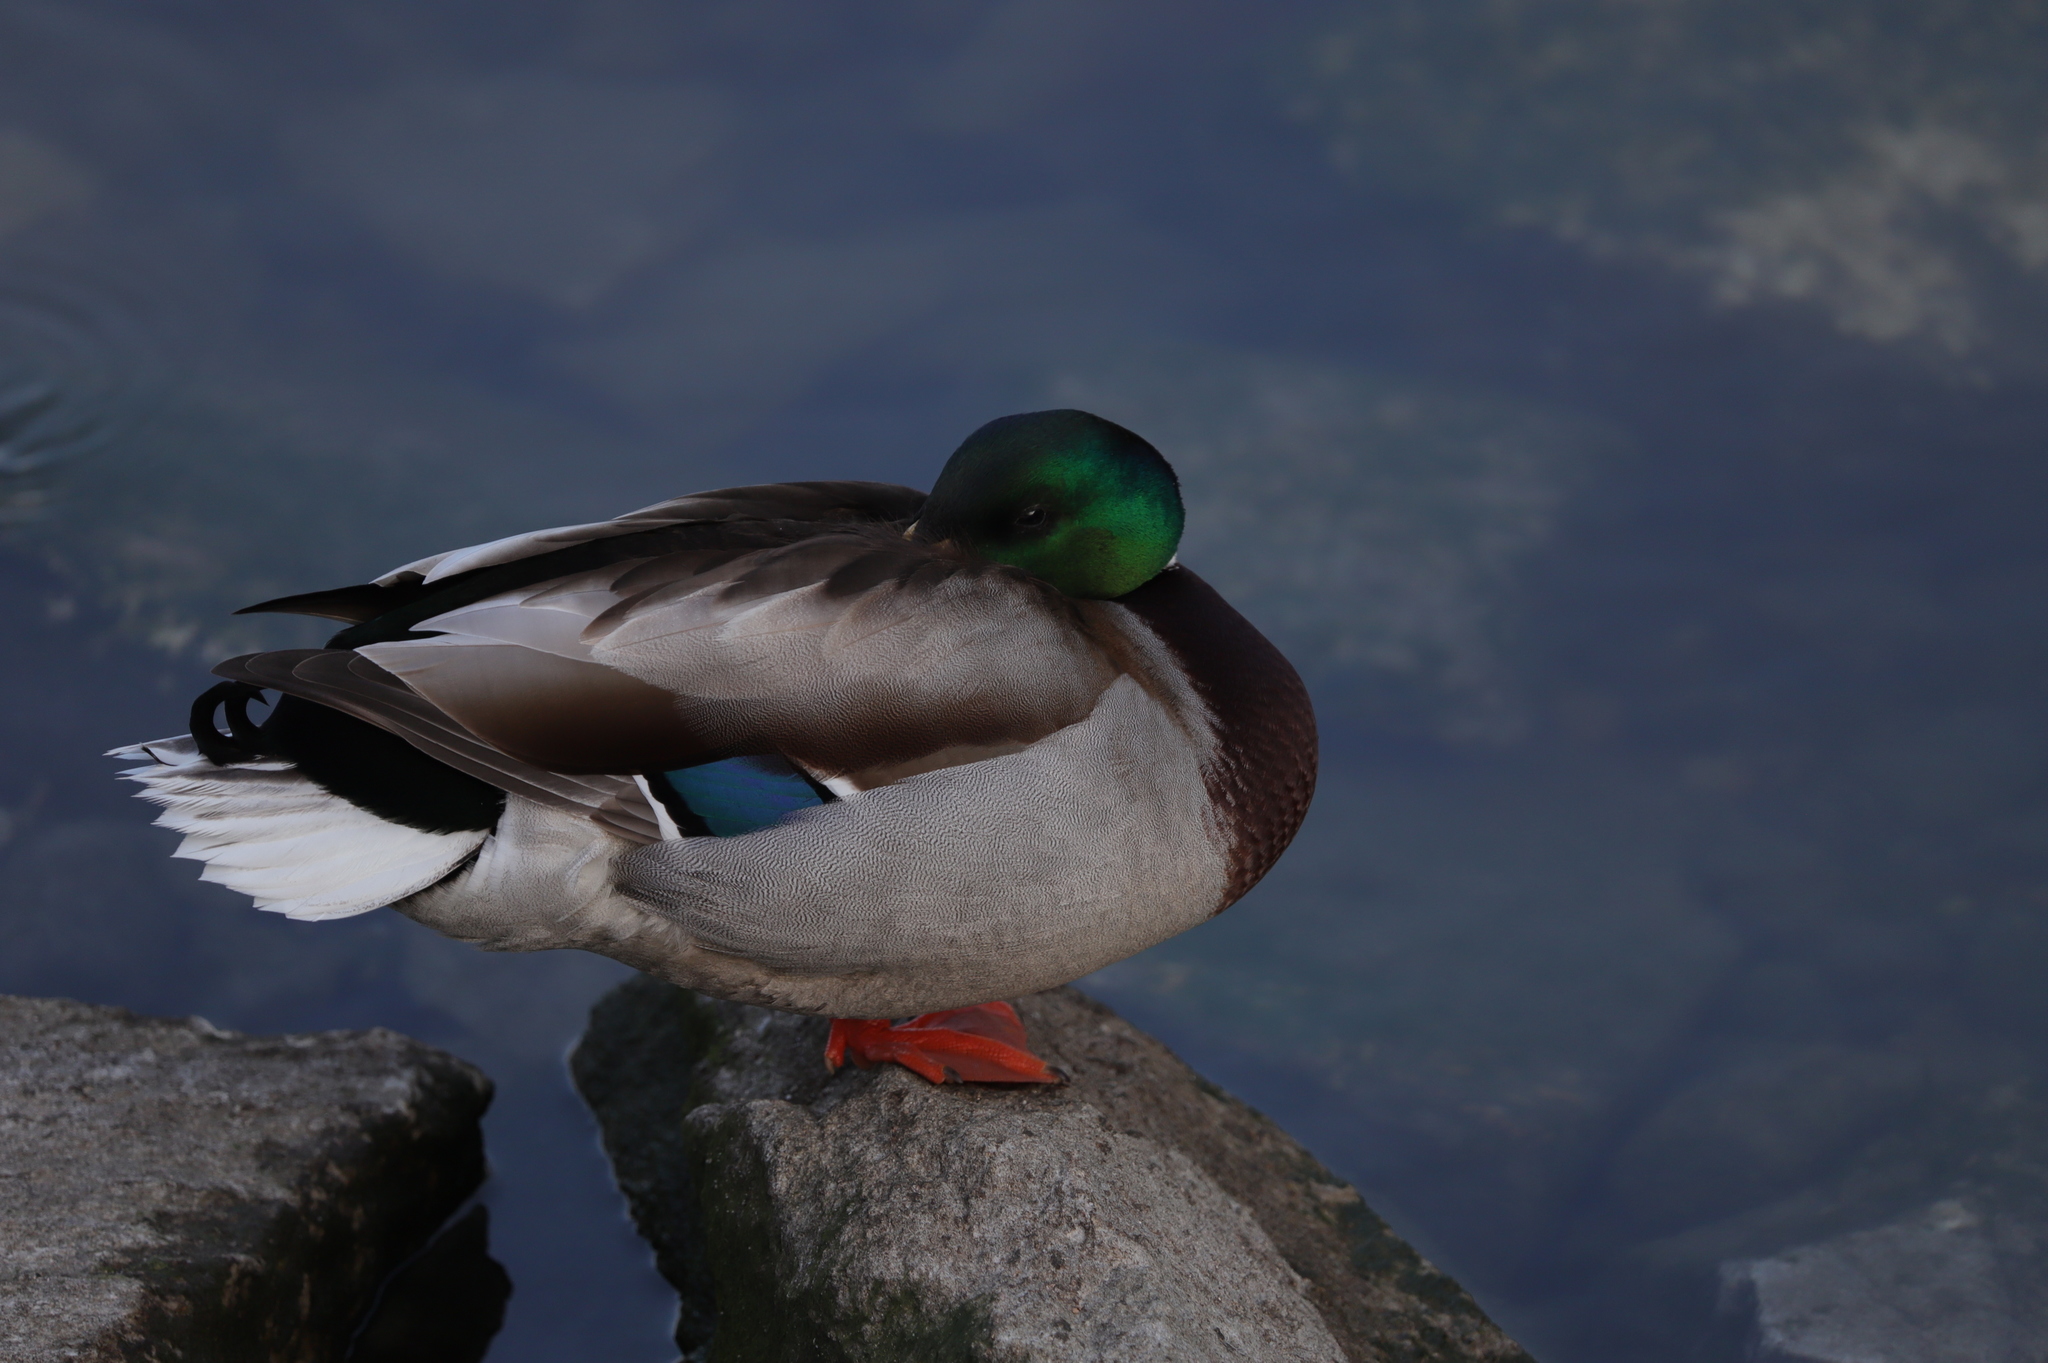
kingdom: Animalia
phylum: Chordata
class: Aves
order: Anseriformes
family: Anatidae
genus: Anas
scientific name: Anas platyrhynchos
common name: Mallard
